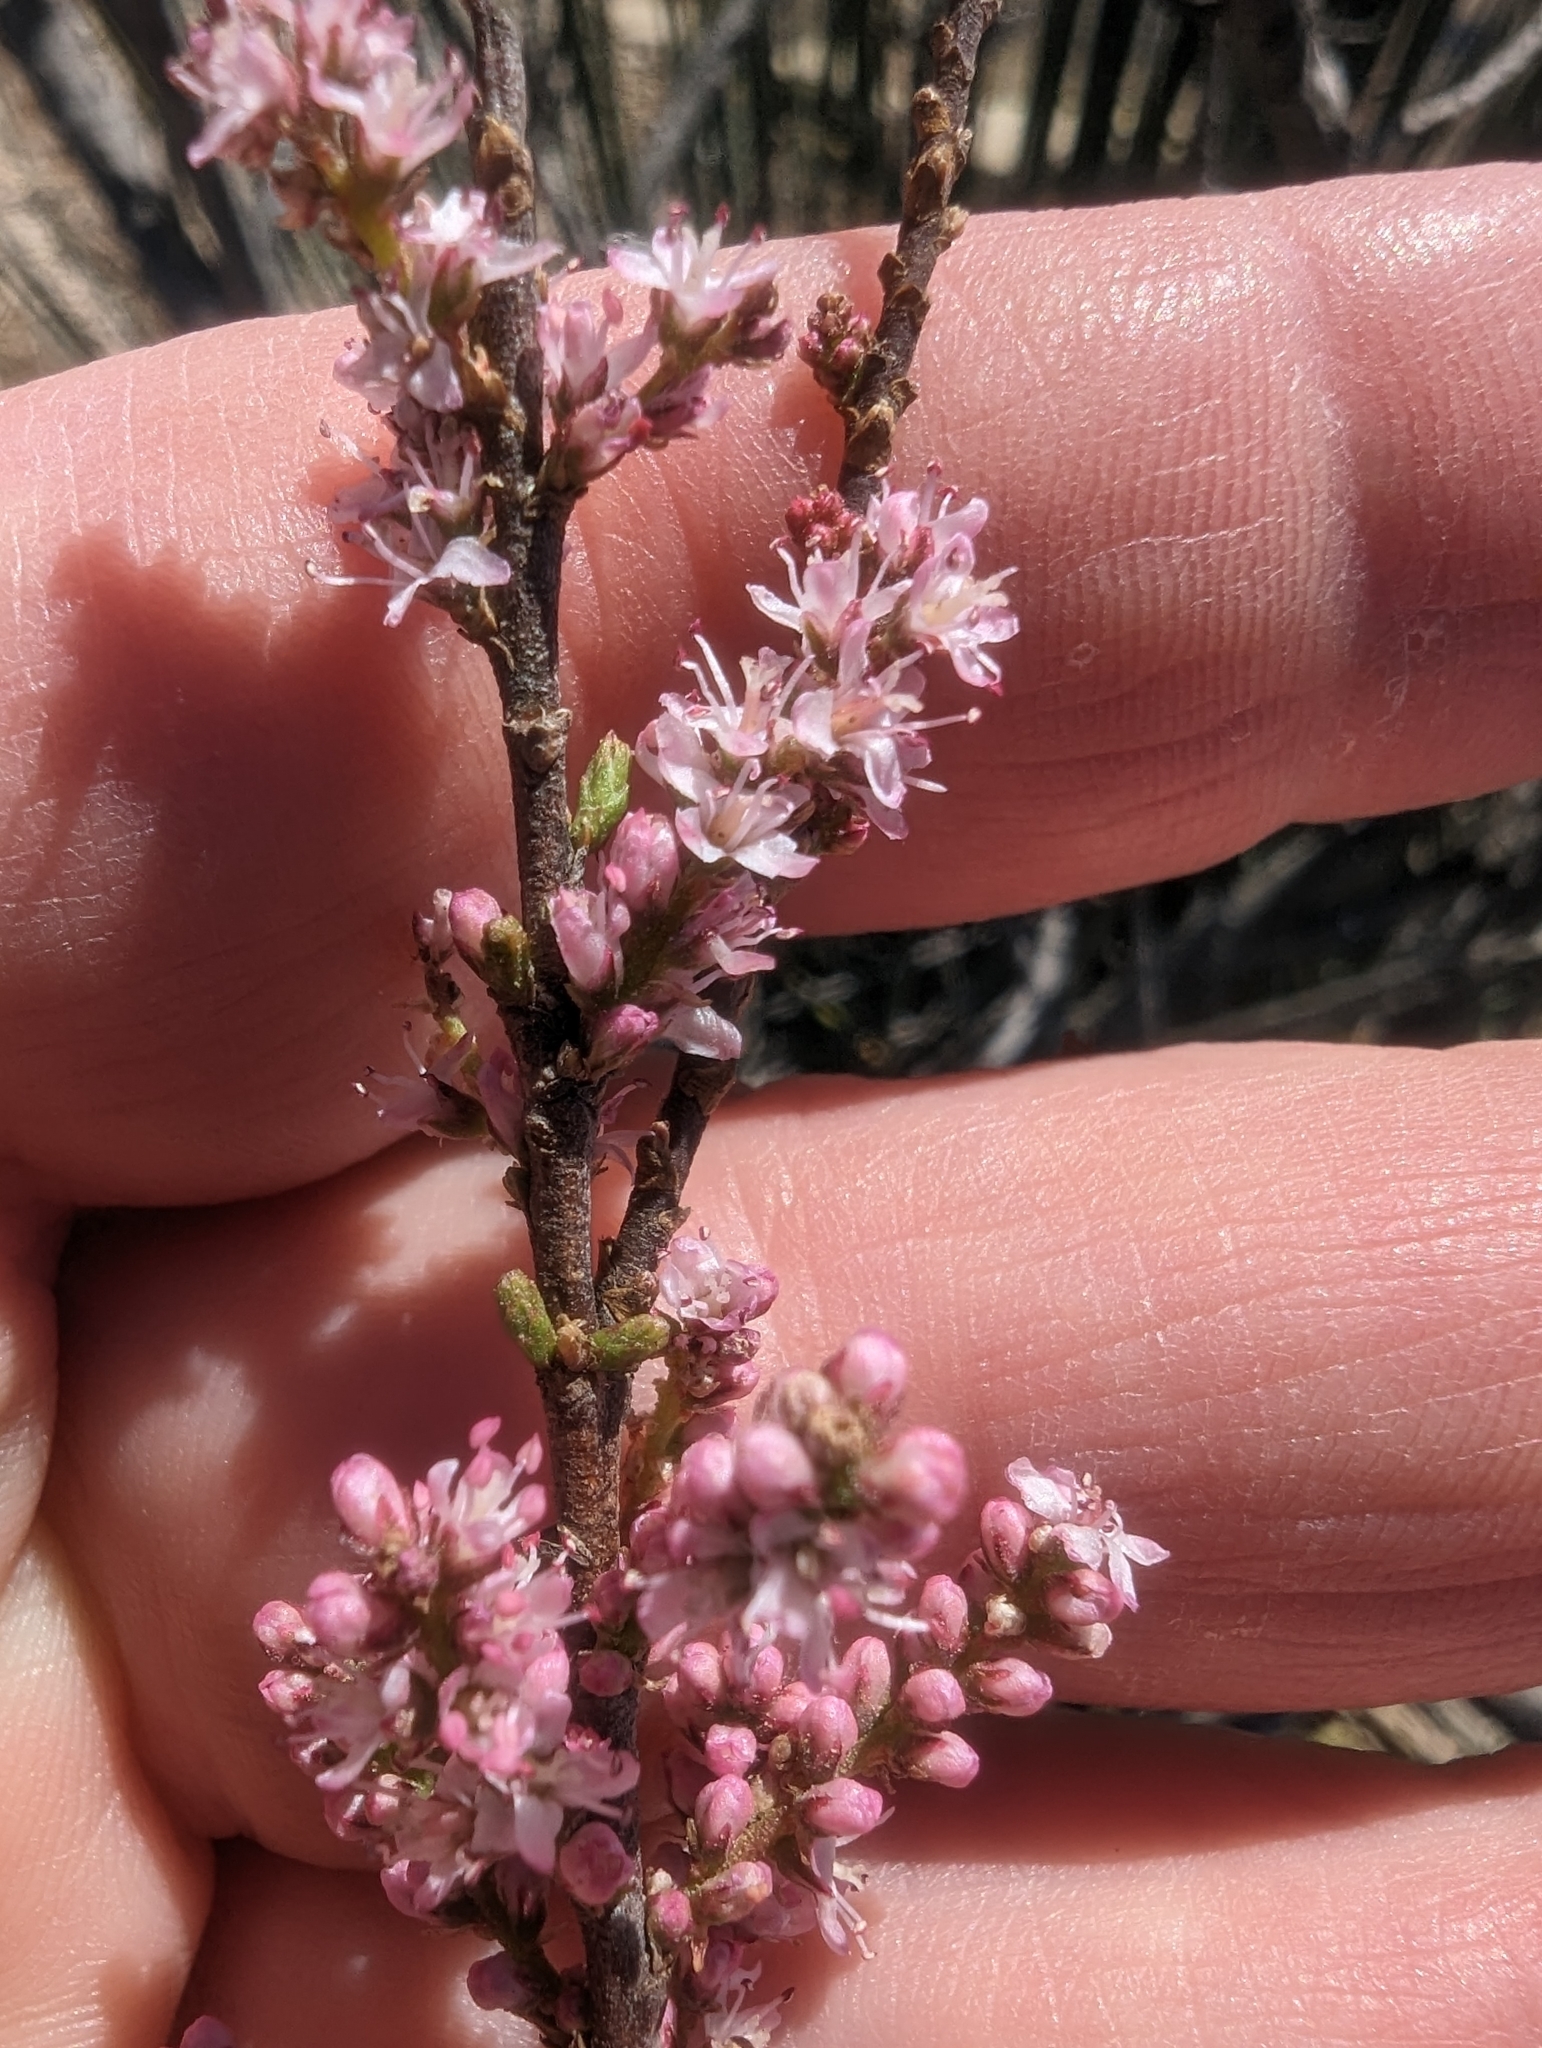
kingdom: Plantae
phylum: Tracheophyta
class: Magnoliopsida
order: Caryophyllales
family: Tamaricaceae
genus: Tamarix
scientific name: Tamarix parviflora
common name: Smallflower tamarisk
